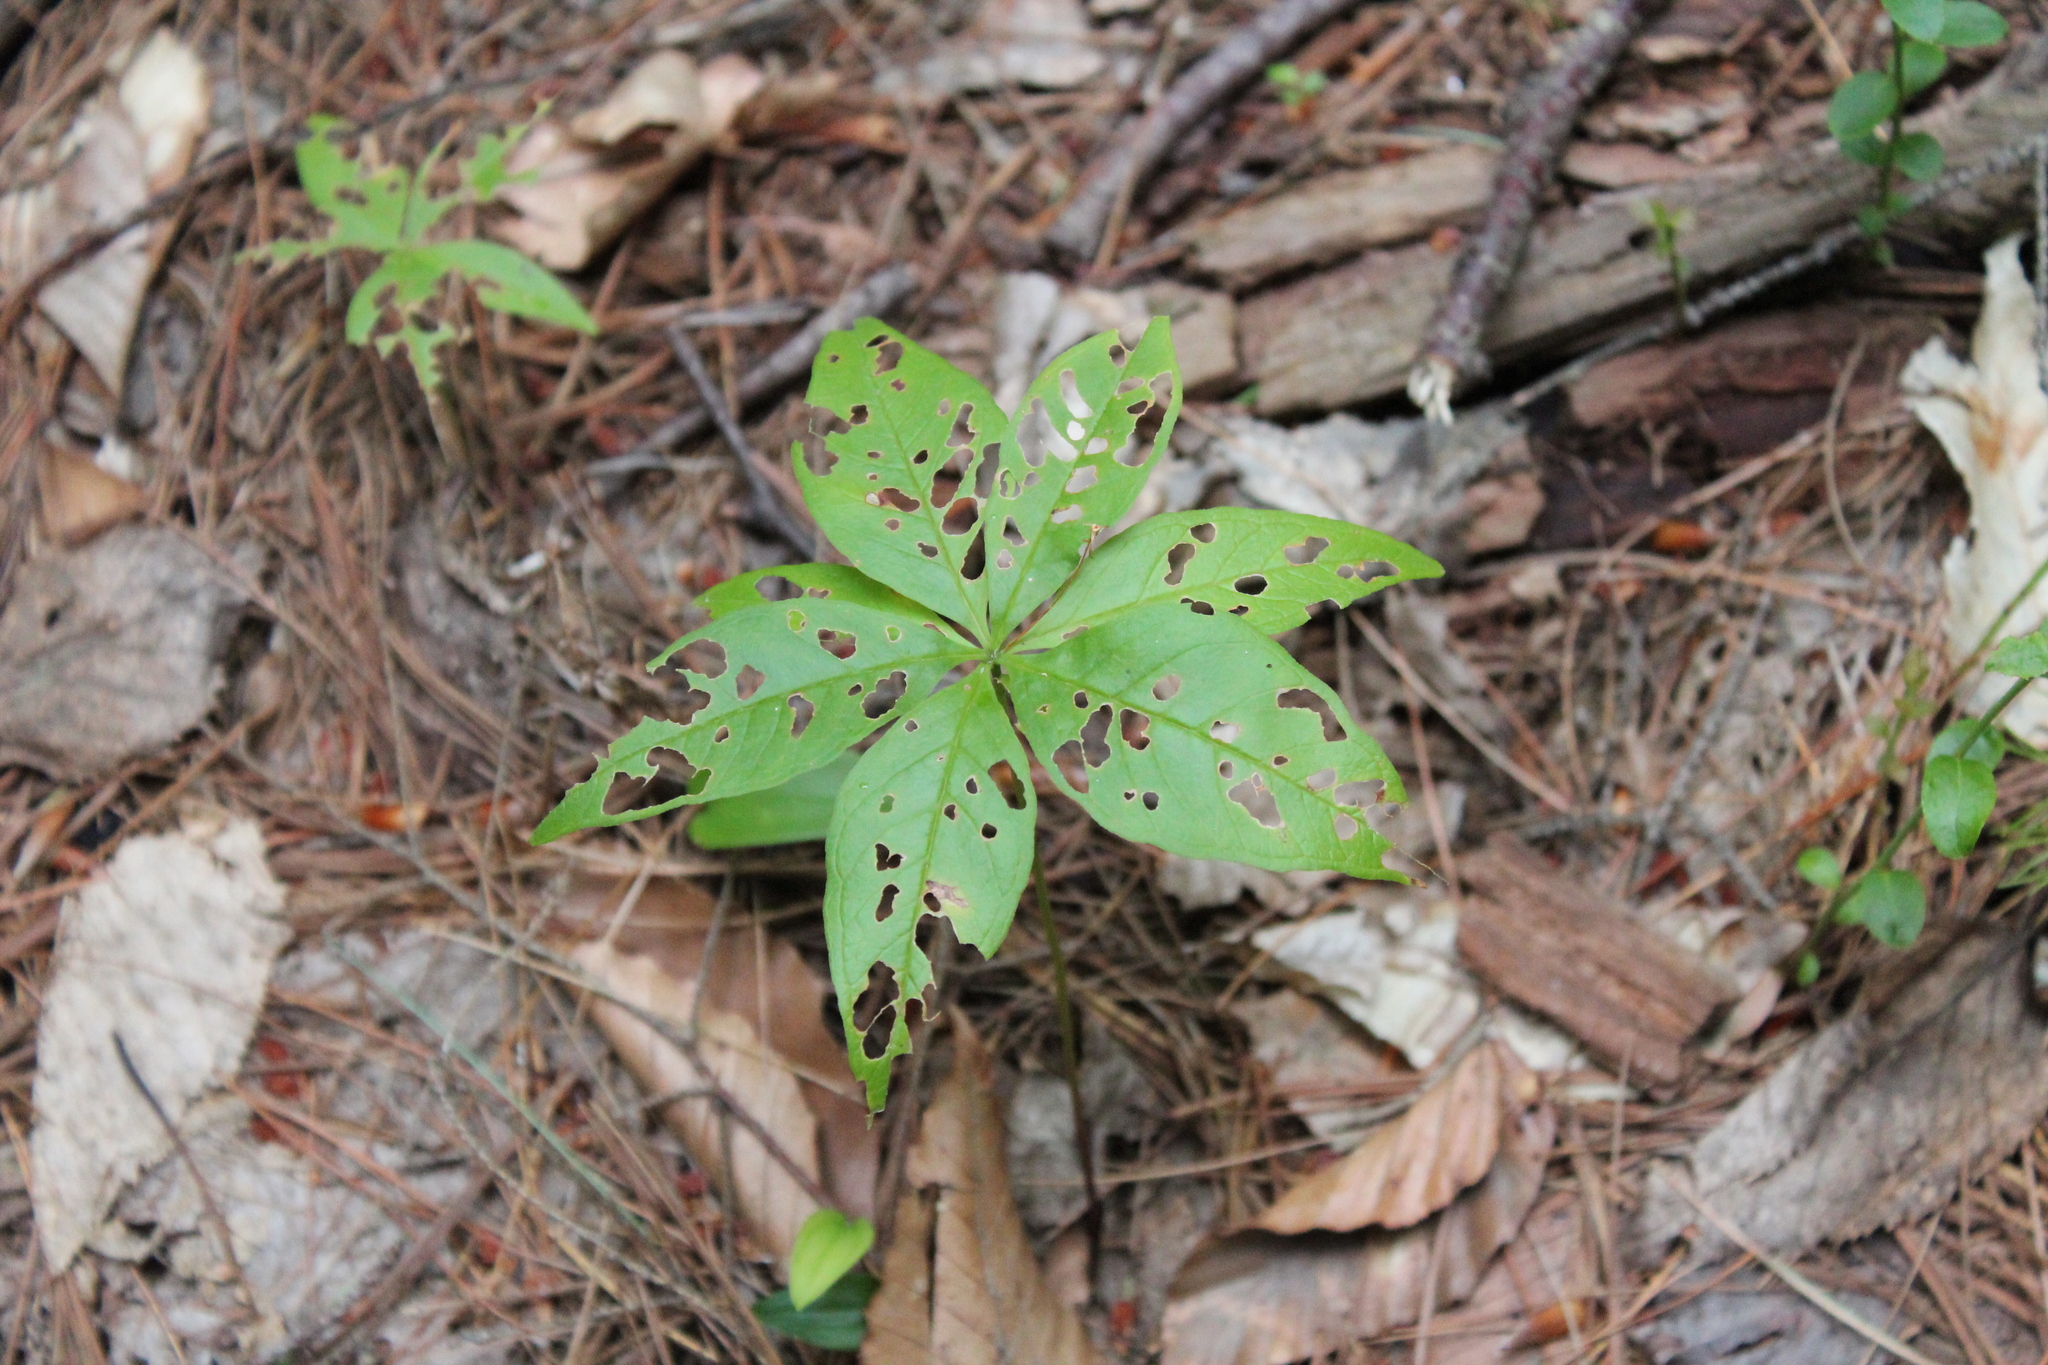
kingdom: Plantae
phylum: Tracheophyta
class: Magnoliopsida
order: Ericales
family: Primulaceae
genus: Lysimachia
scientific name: Lysimachia borealis
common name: American starflower
